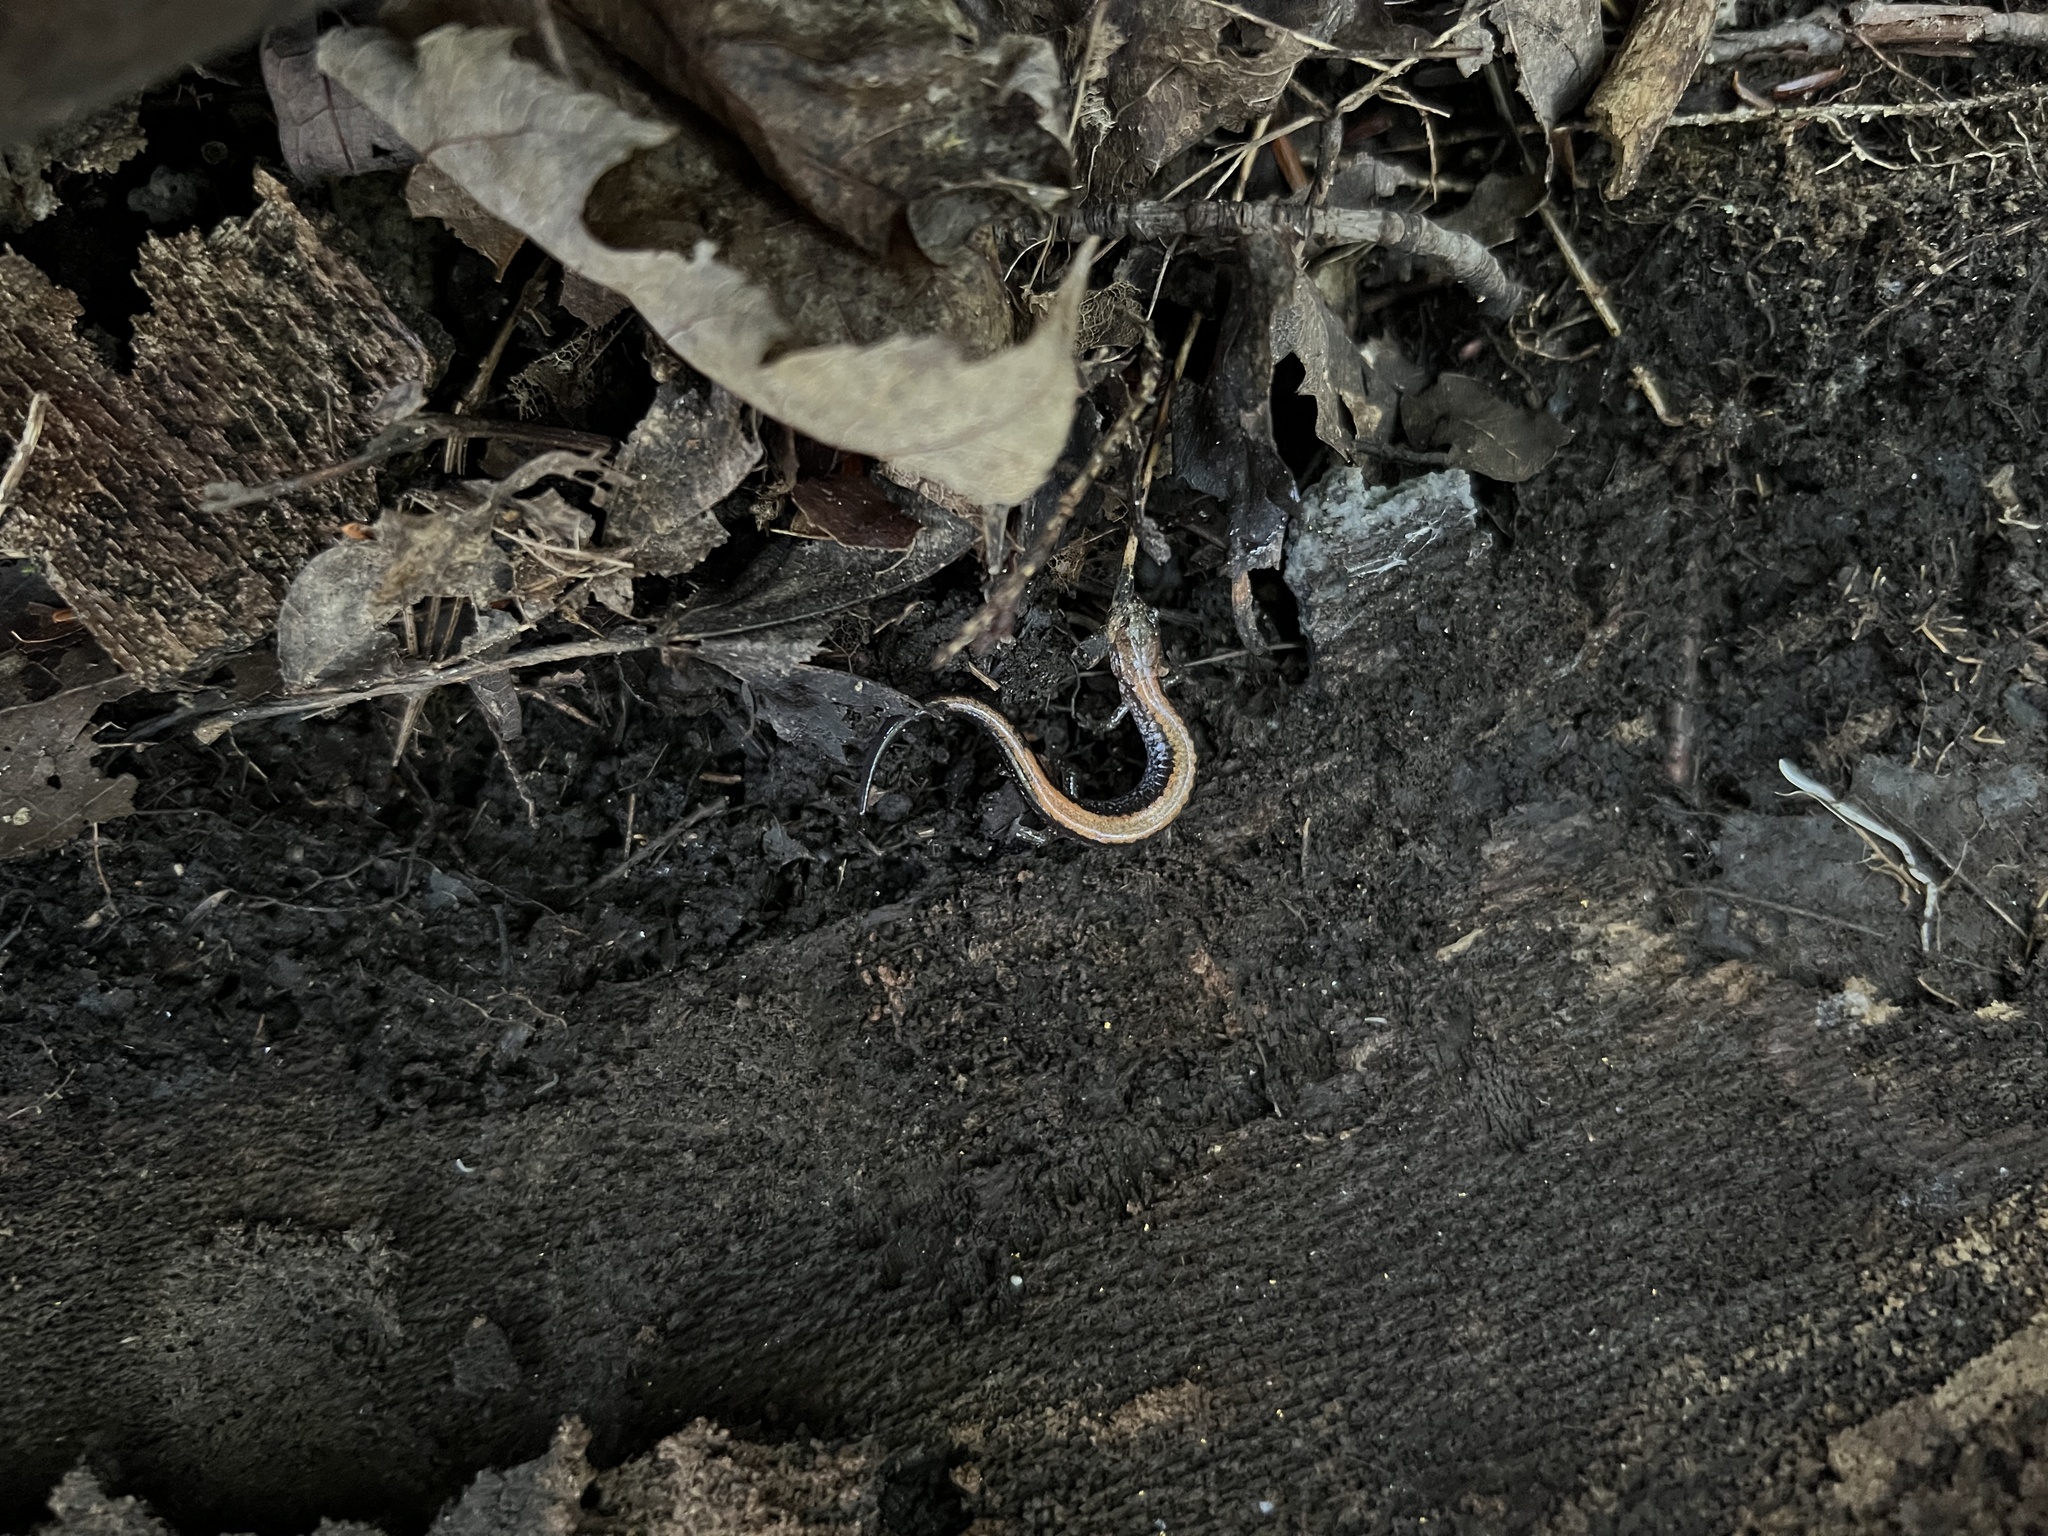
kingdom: Animalia
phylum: Chordata
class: Amphibia
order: Caudata
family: Plethodontidae
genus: Plethodon
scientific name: Plethodon cinereus
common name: Redback salamander
